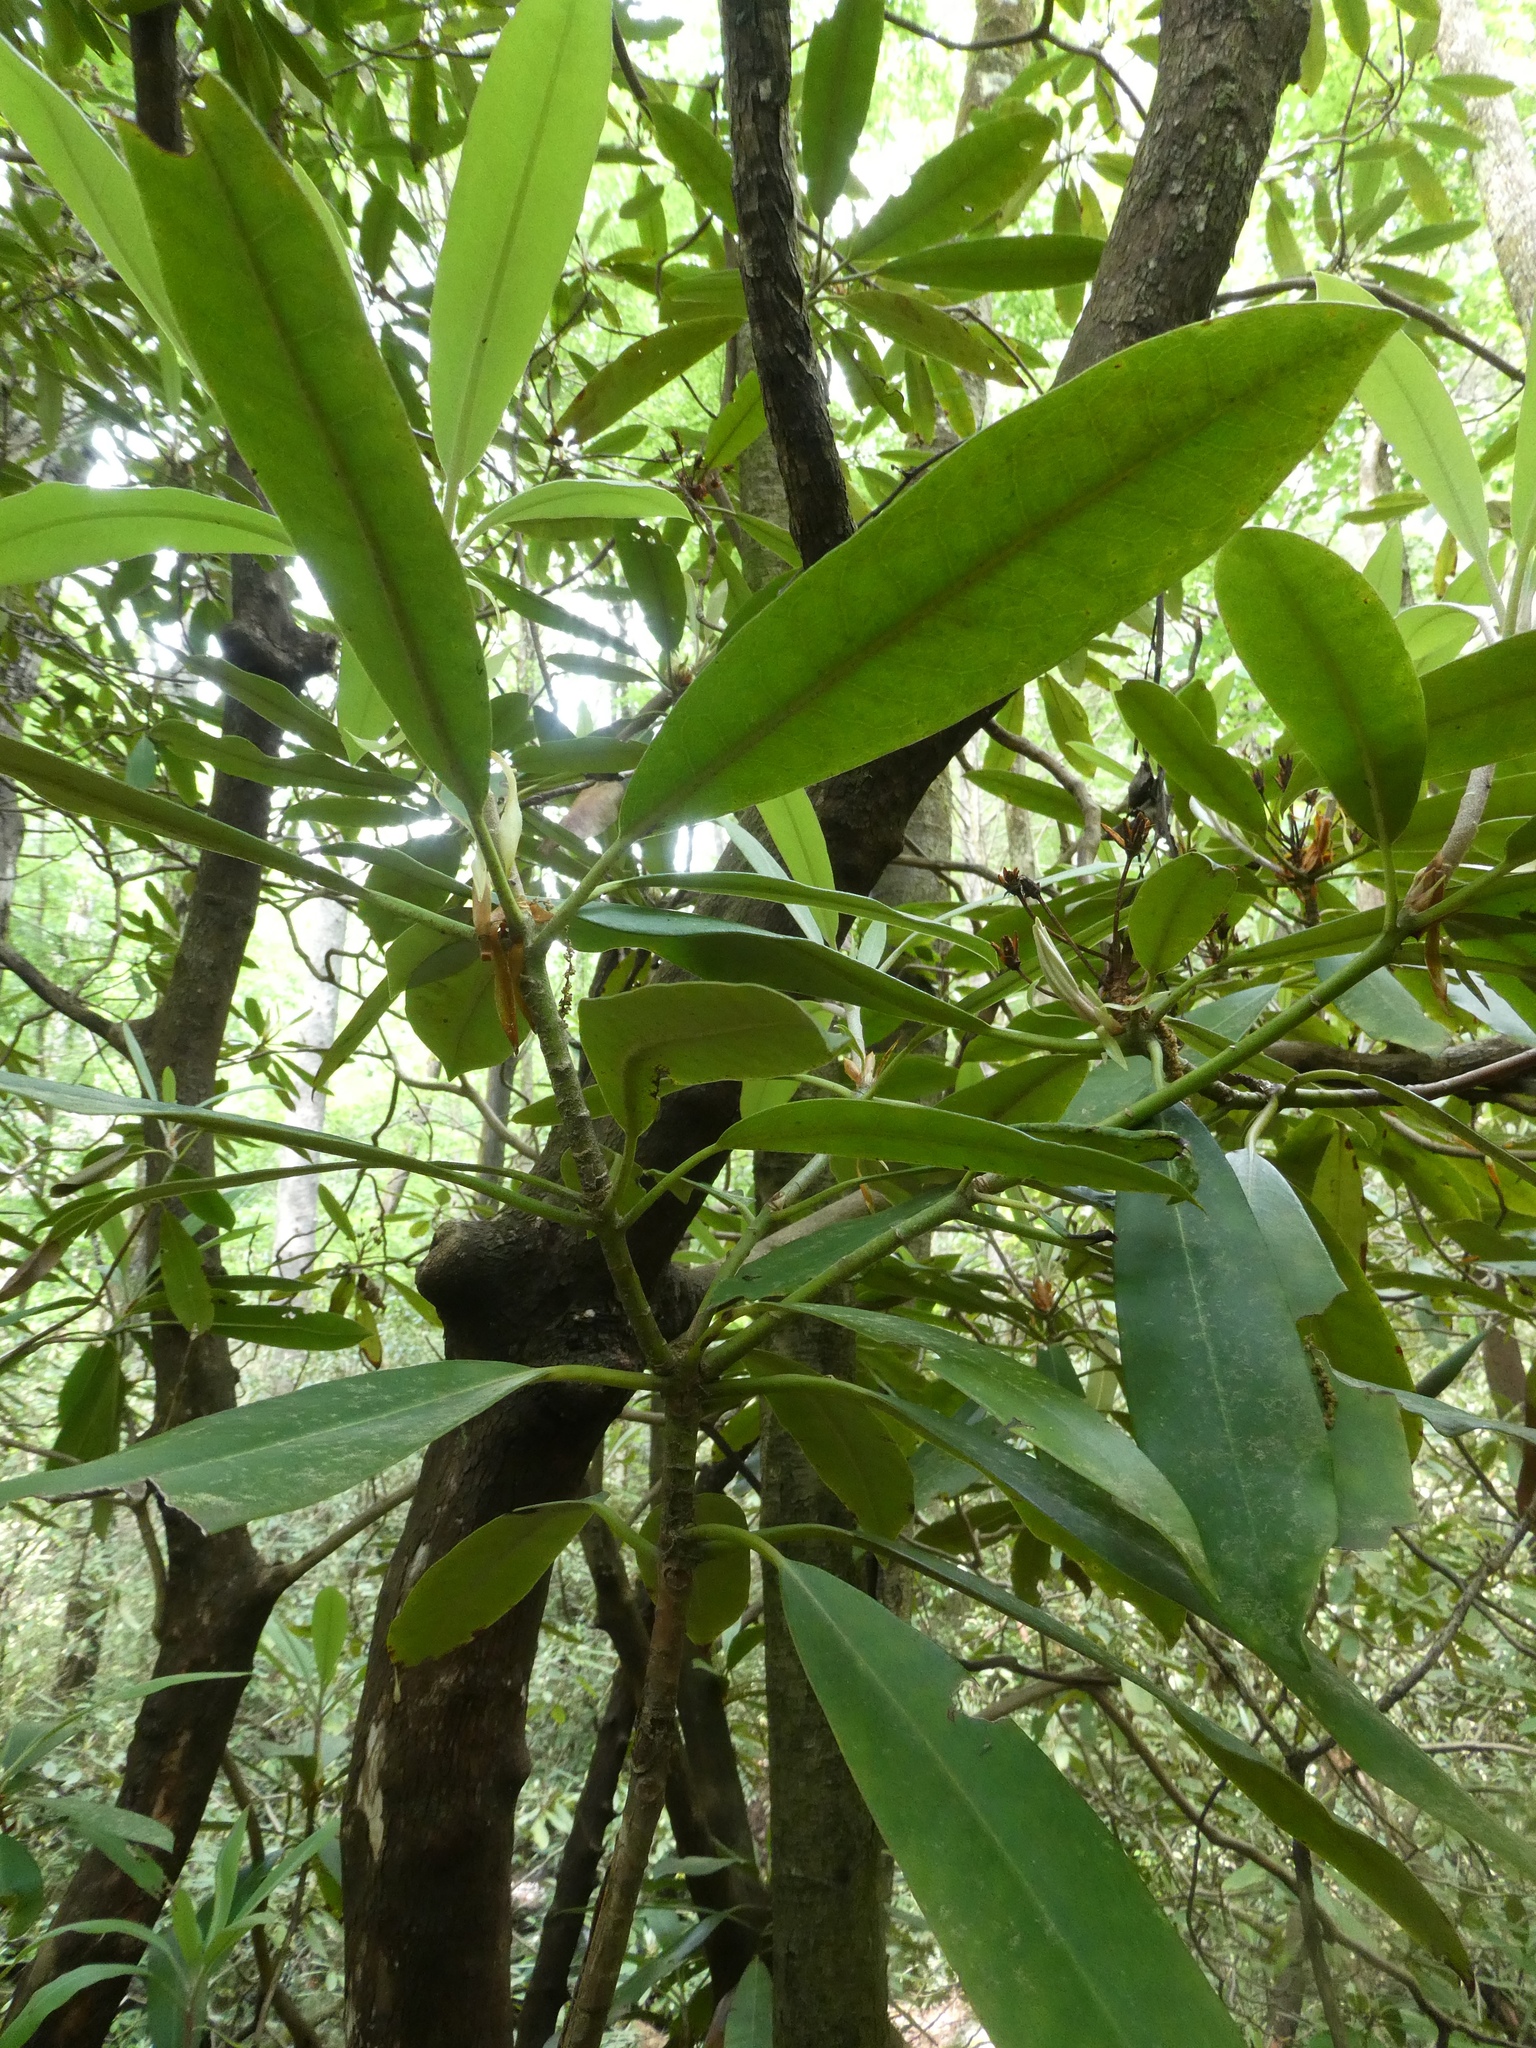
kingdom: Plantae
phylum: Tracheophyta
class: Magnoliopsida
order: Ericales
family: Ericaceae
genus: Rhododendron
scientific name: Rhododendron maximum
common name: Great rhododendron
